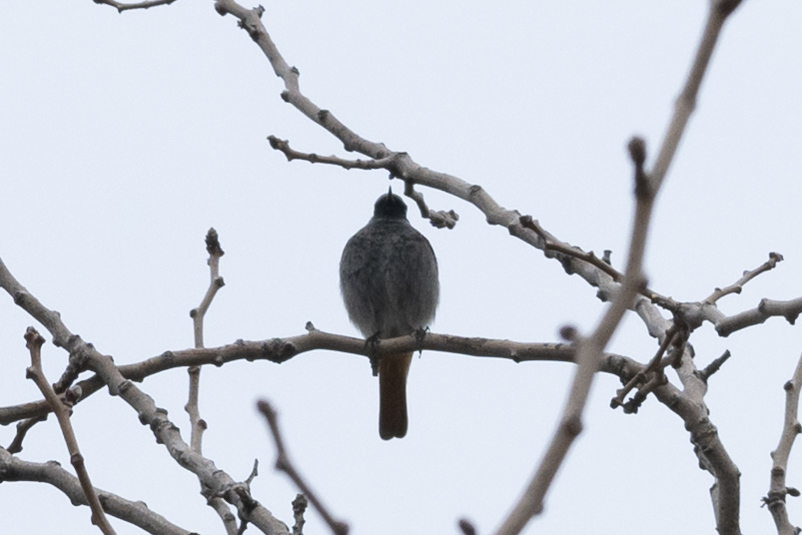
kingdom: Animalia
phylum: Chordata
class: Aves
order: Passeriformes
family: Muscicapidae
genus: Phoenicurus
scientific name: Phoenicurus ochruros
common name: Black redstart
